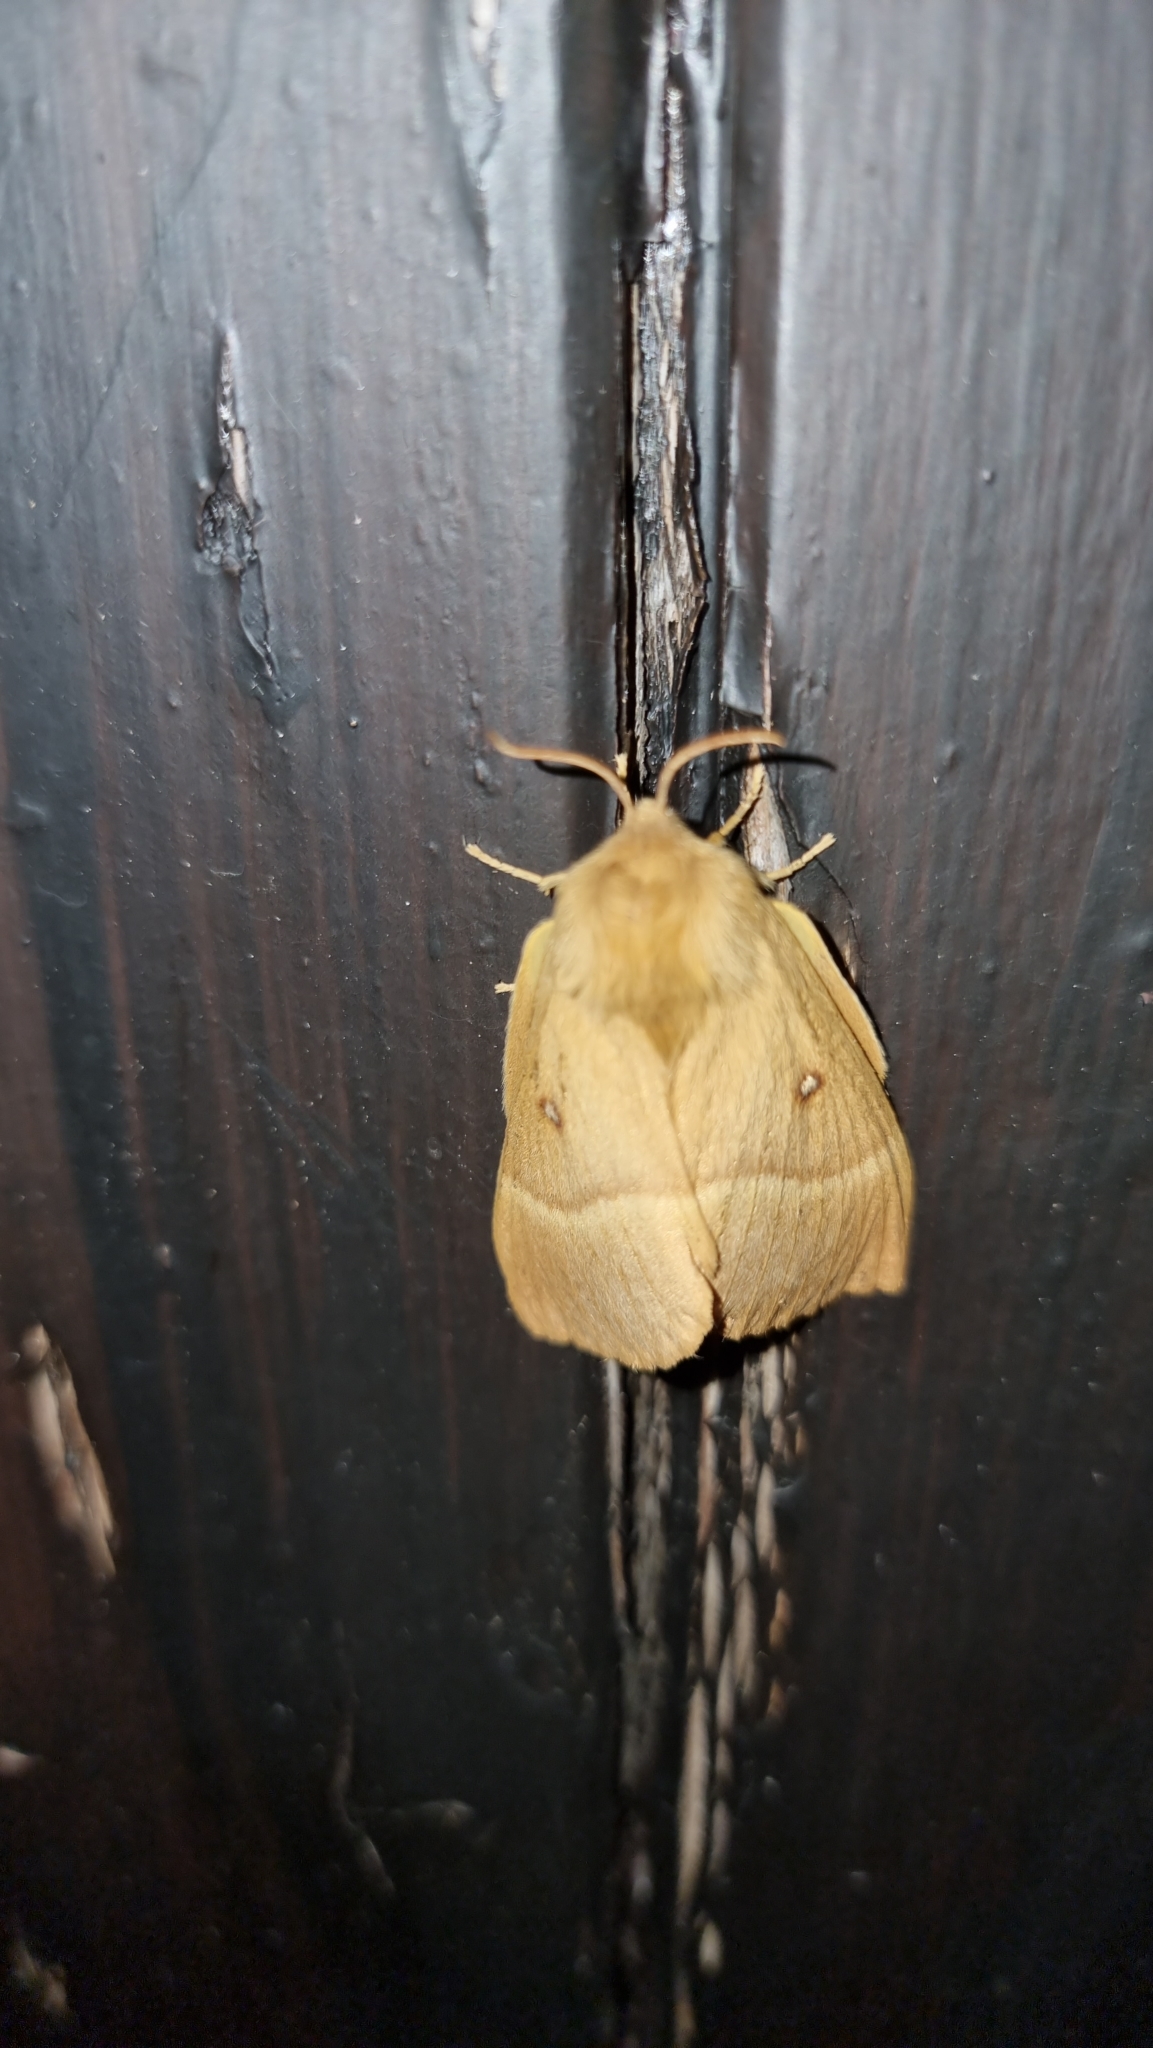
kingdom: Animalia
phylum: Arthropoda
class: Insecta
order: Lepidoptera
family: Lasiocampidae
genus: Lasiocampa
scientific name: Lasiocampa quercus
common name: Oak eggar
